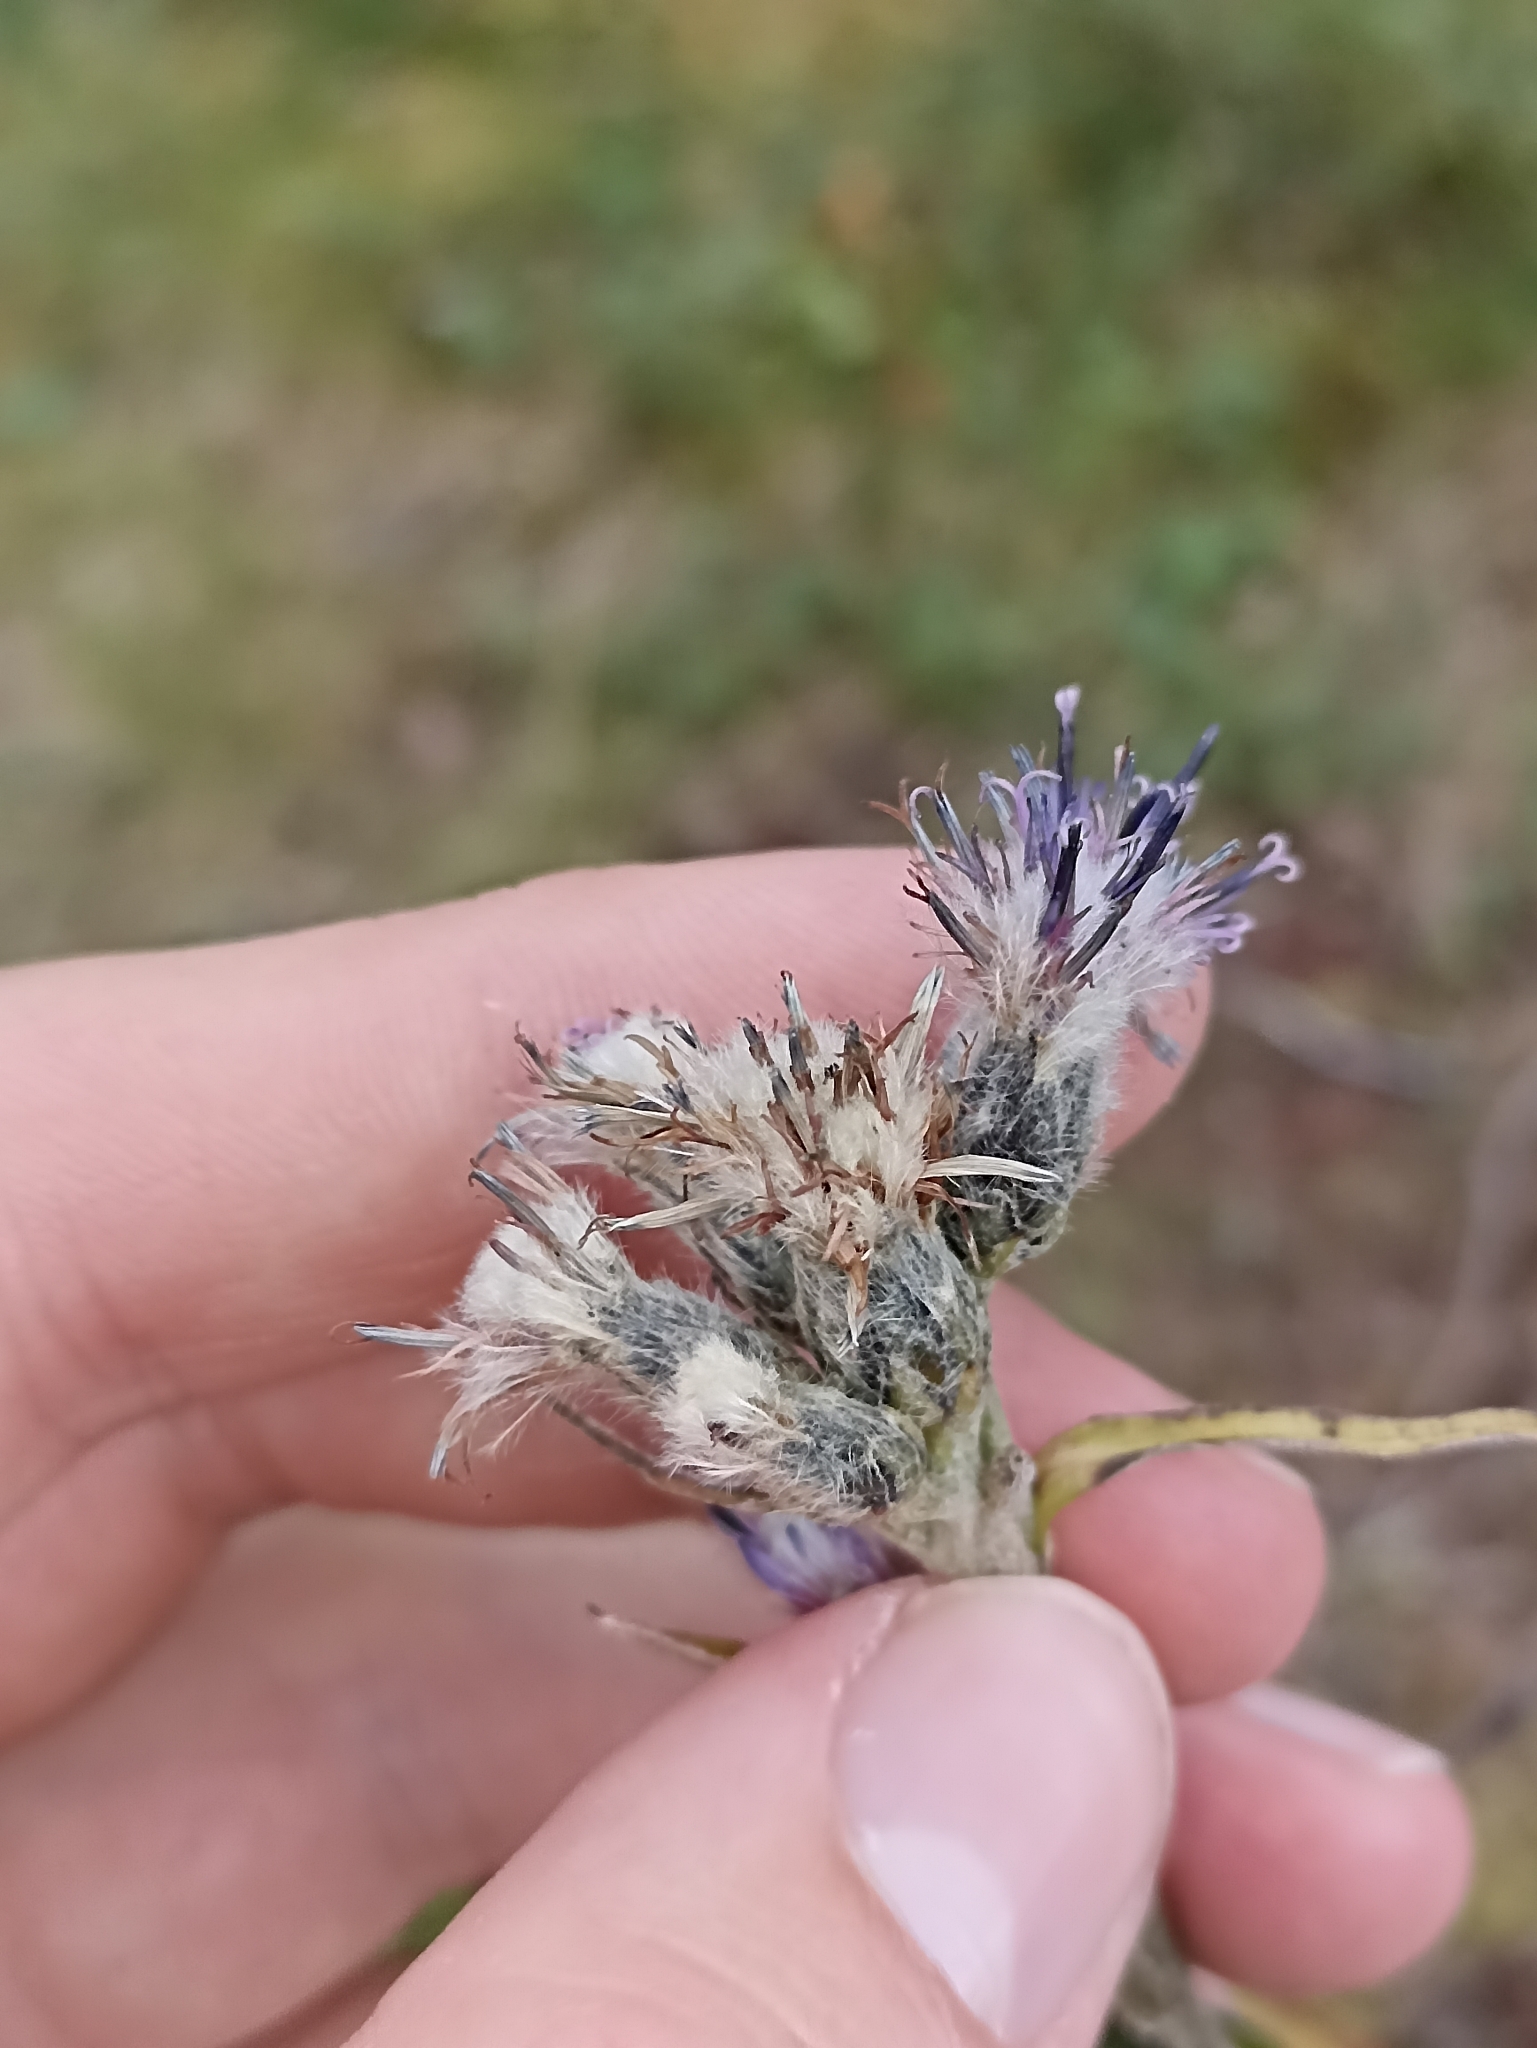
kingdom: Plantae
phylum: Tracheophyta
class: Magnoliopsida
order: Asterales
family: Asteraceae
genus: Saussurea
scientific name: Saussurea alpina
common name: Alpine saw-wort
